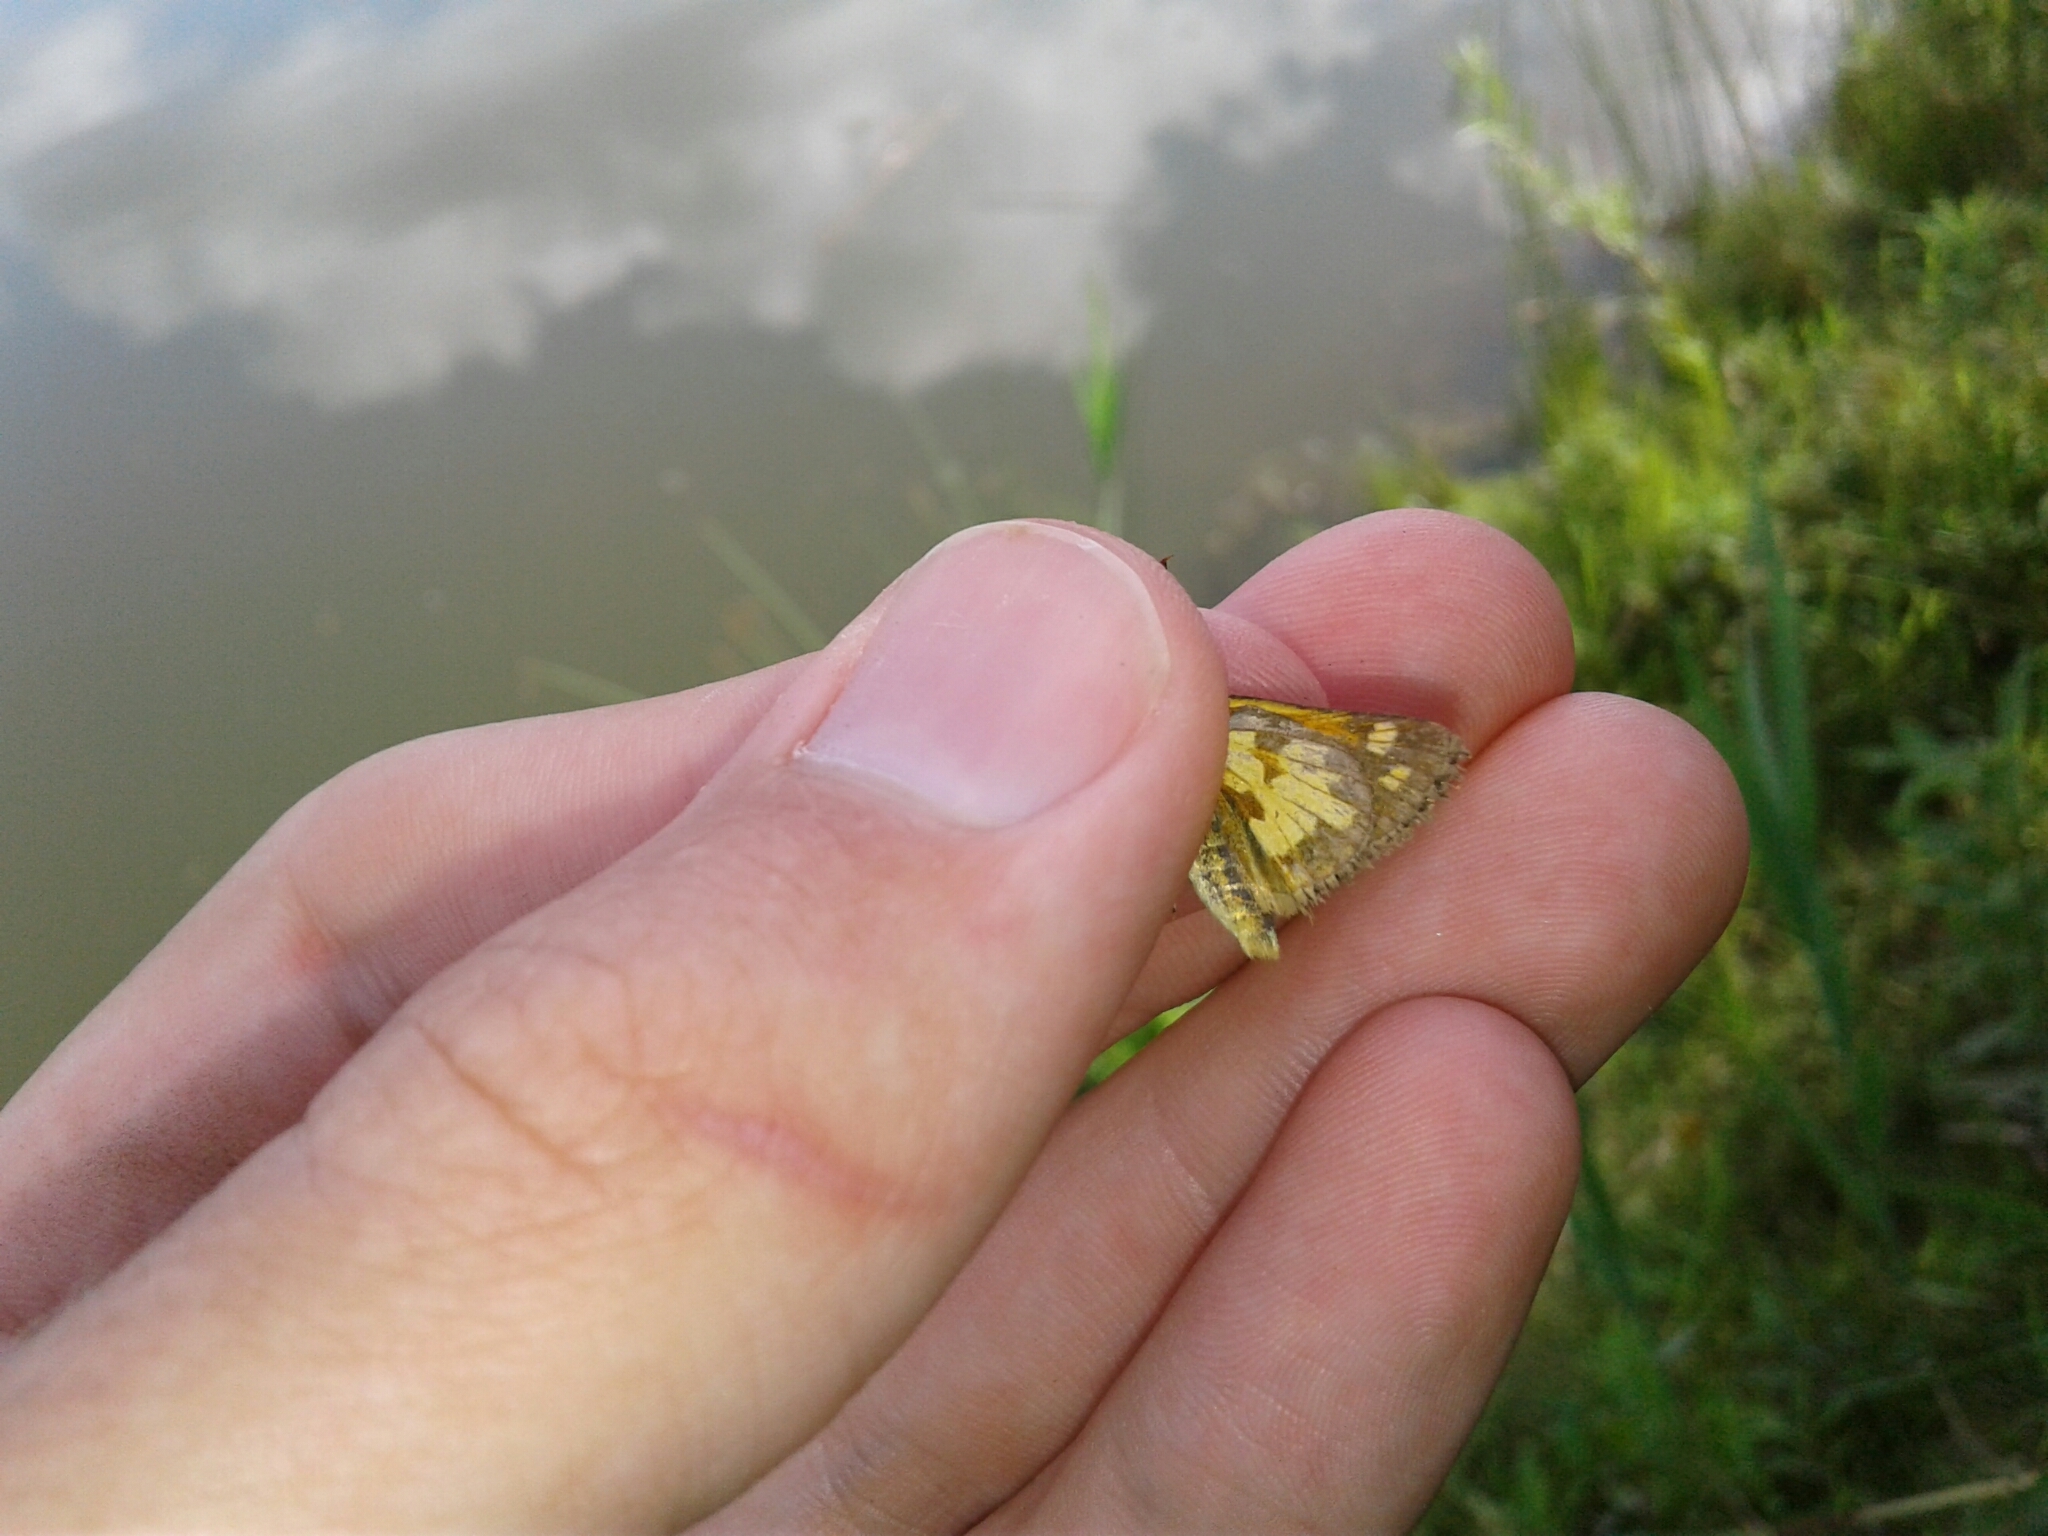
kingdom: Animalia
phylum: Arthropoda
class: Insecta
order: Lepidoptera
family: Hesperiidae
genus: Polites
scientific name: Polites coras
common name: Peck's skipper
